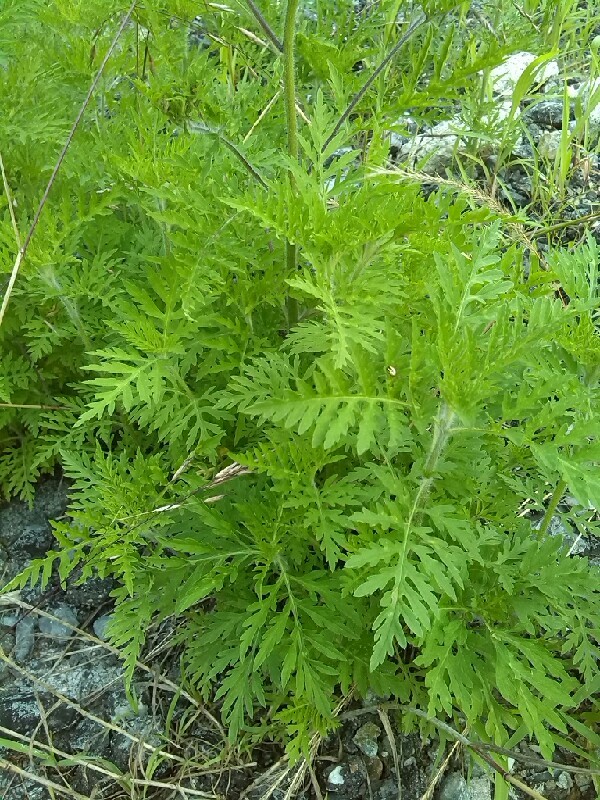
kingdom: Plantae
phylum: Tracheophyta
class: Magnoliopsida
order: Asterales
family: Asteraceae
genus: Ambrosia
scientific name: Ambrosia artemisiifolia
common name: Annual ragweed
